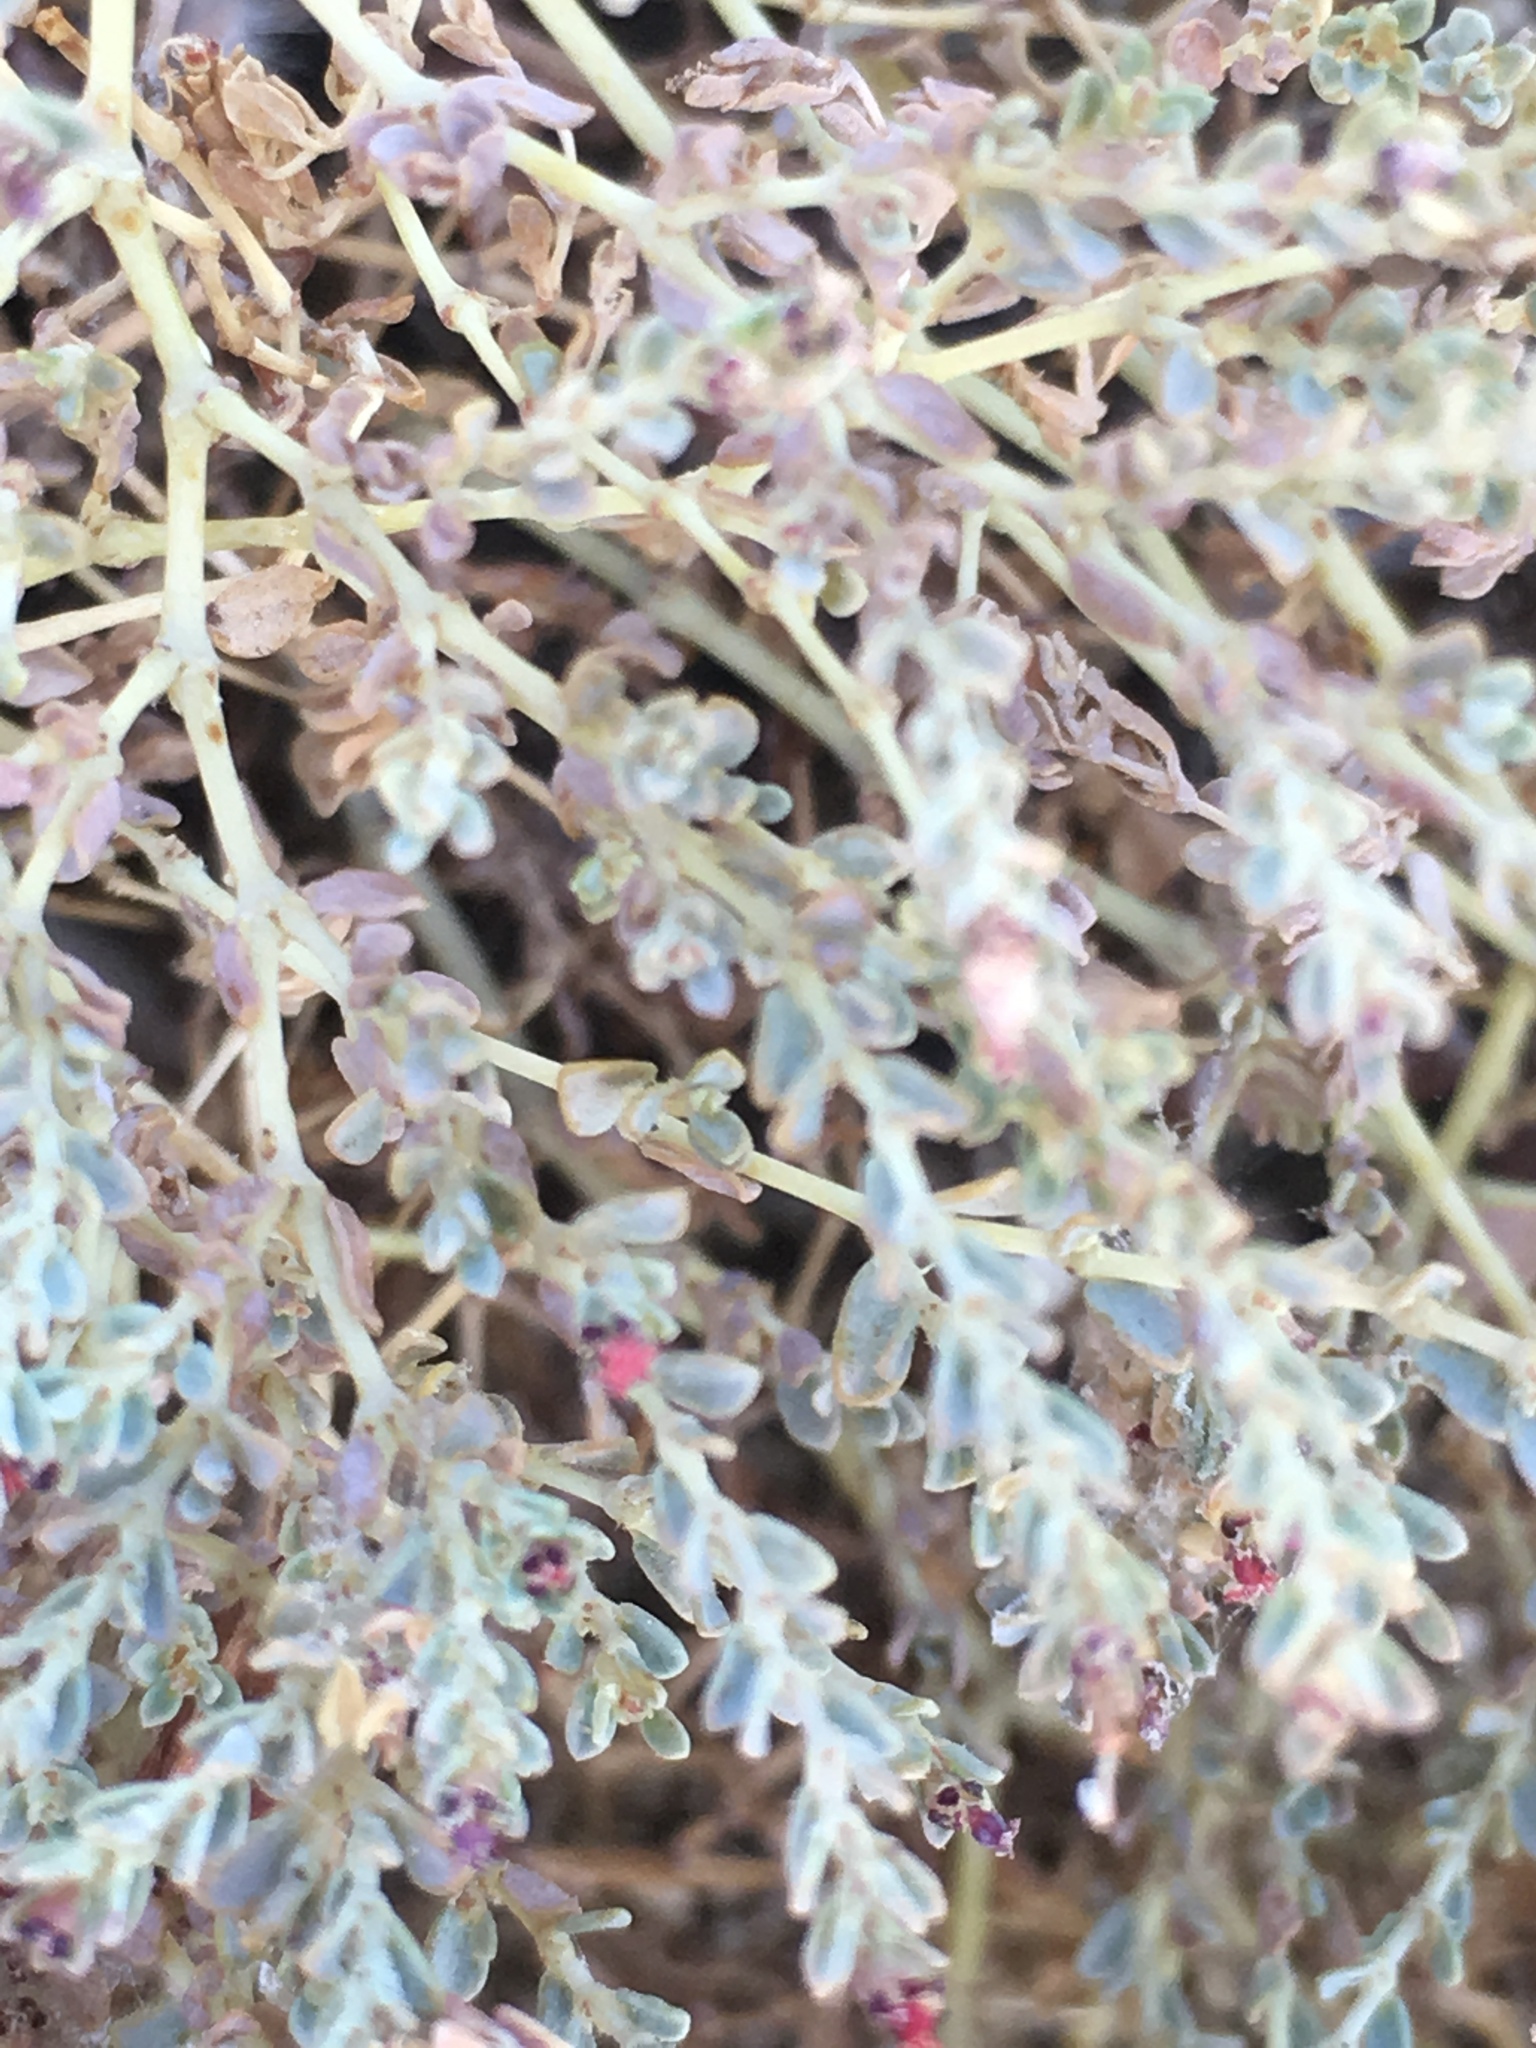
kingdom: Plantae
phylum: Tracheophyta
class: Magnoliopsida
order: Malpighiales
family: Euphorbiaceae
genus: Euphorbia
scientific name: Euphorbia polycarpa
